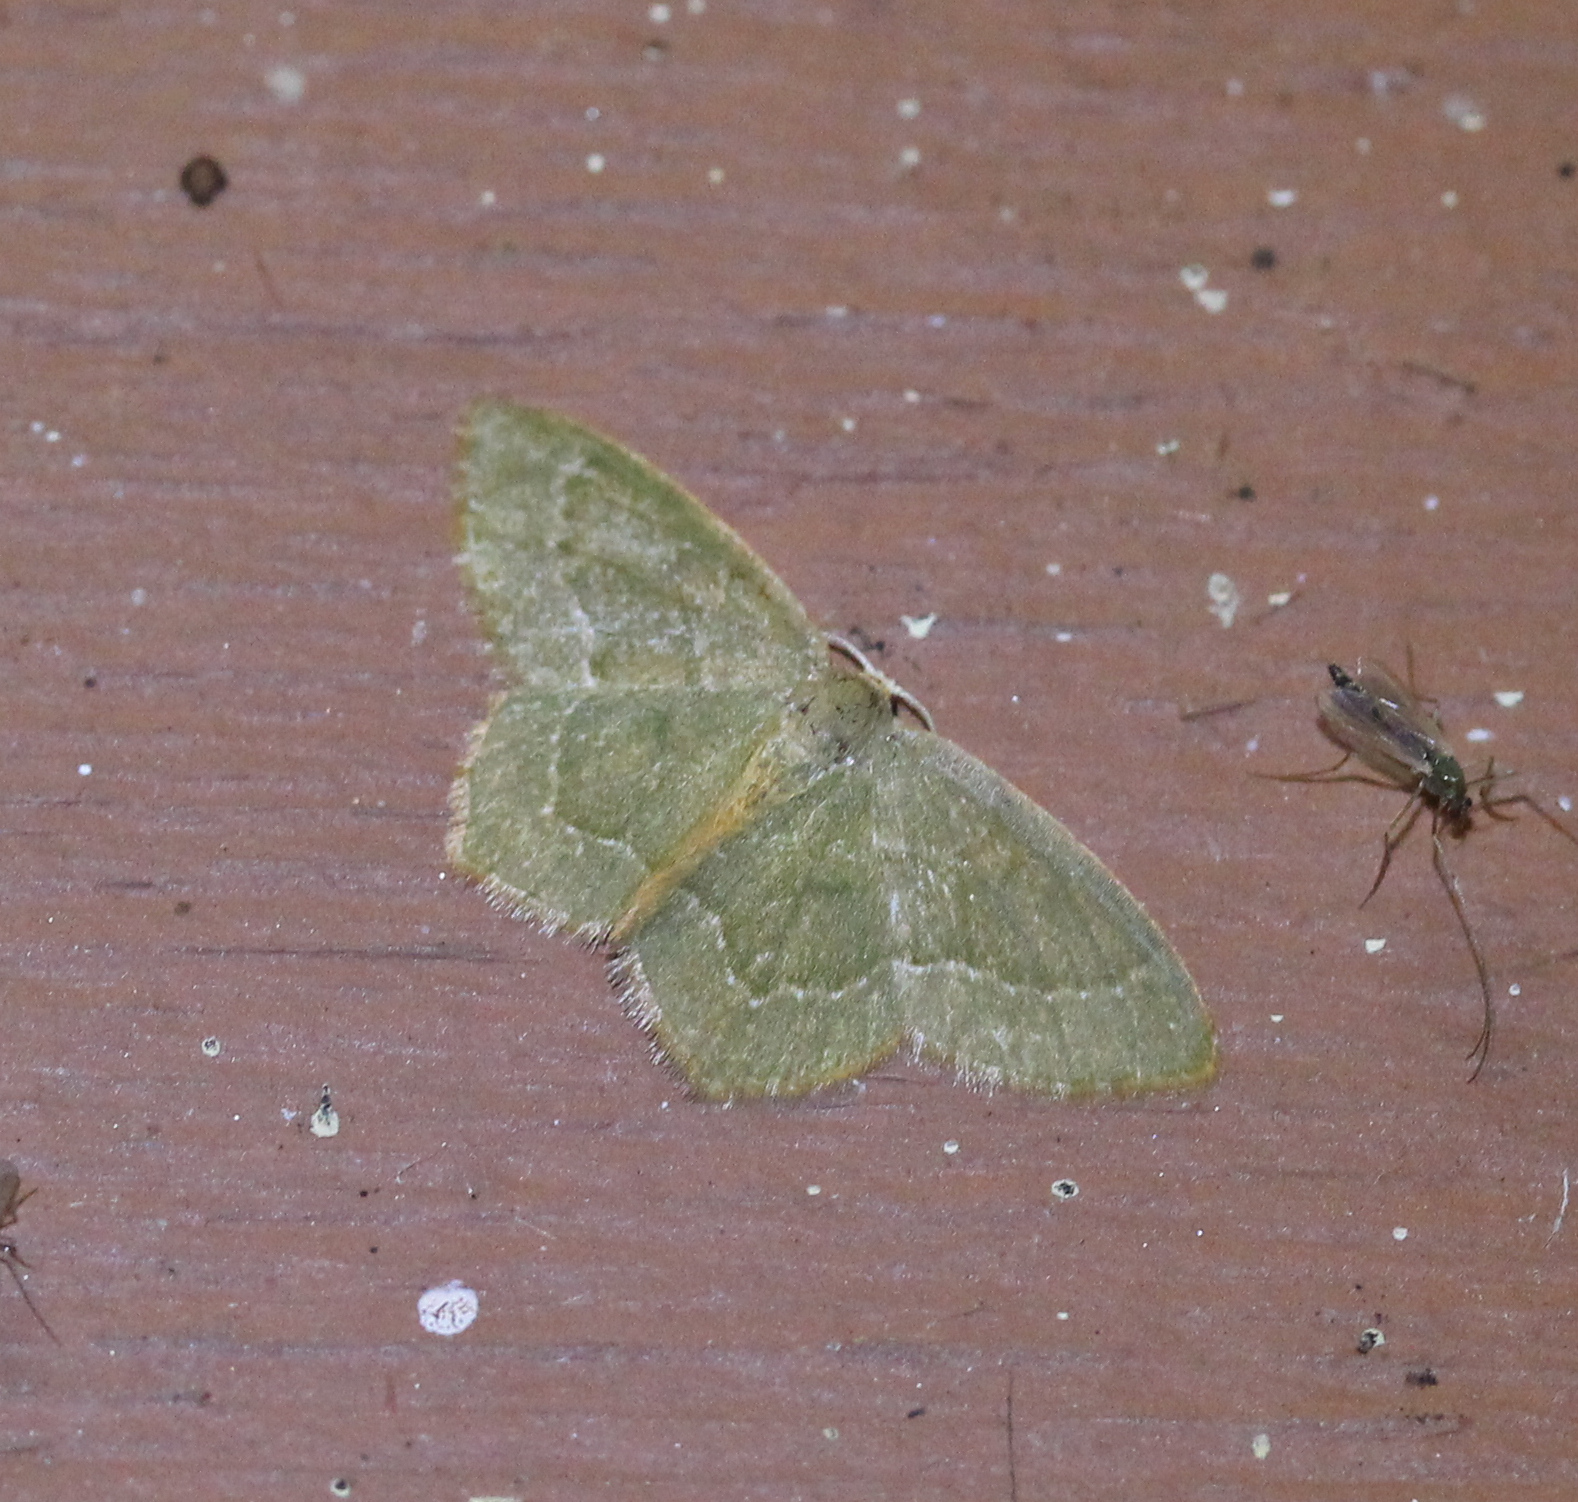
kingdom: Animalia
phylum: Arthropoda
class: Insecta
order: Lepidoptera
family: Geometridae
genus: Thalera
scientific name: Thalera pistasciaria
